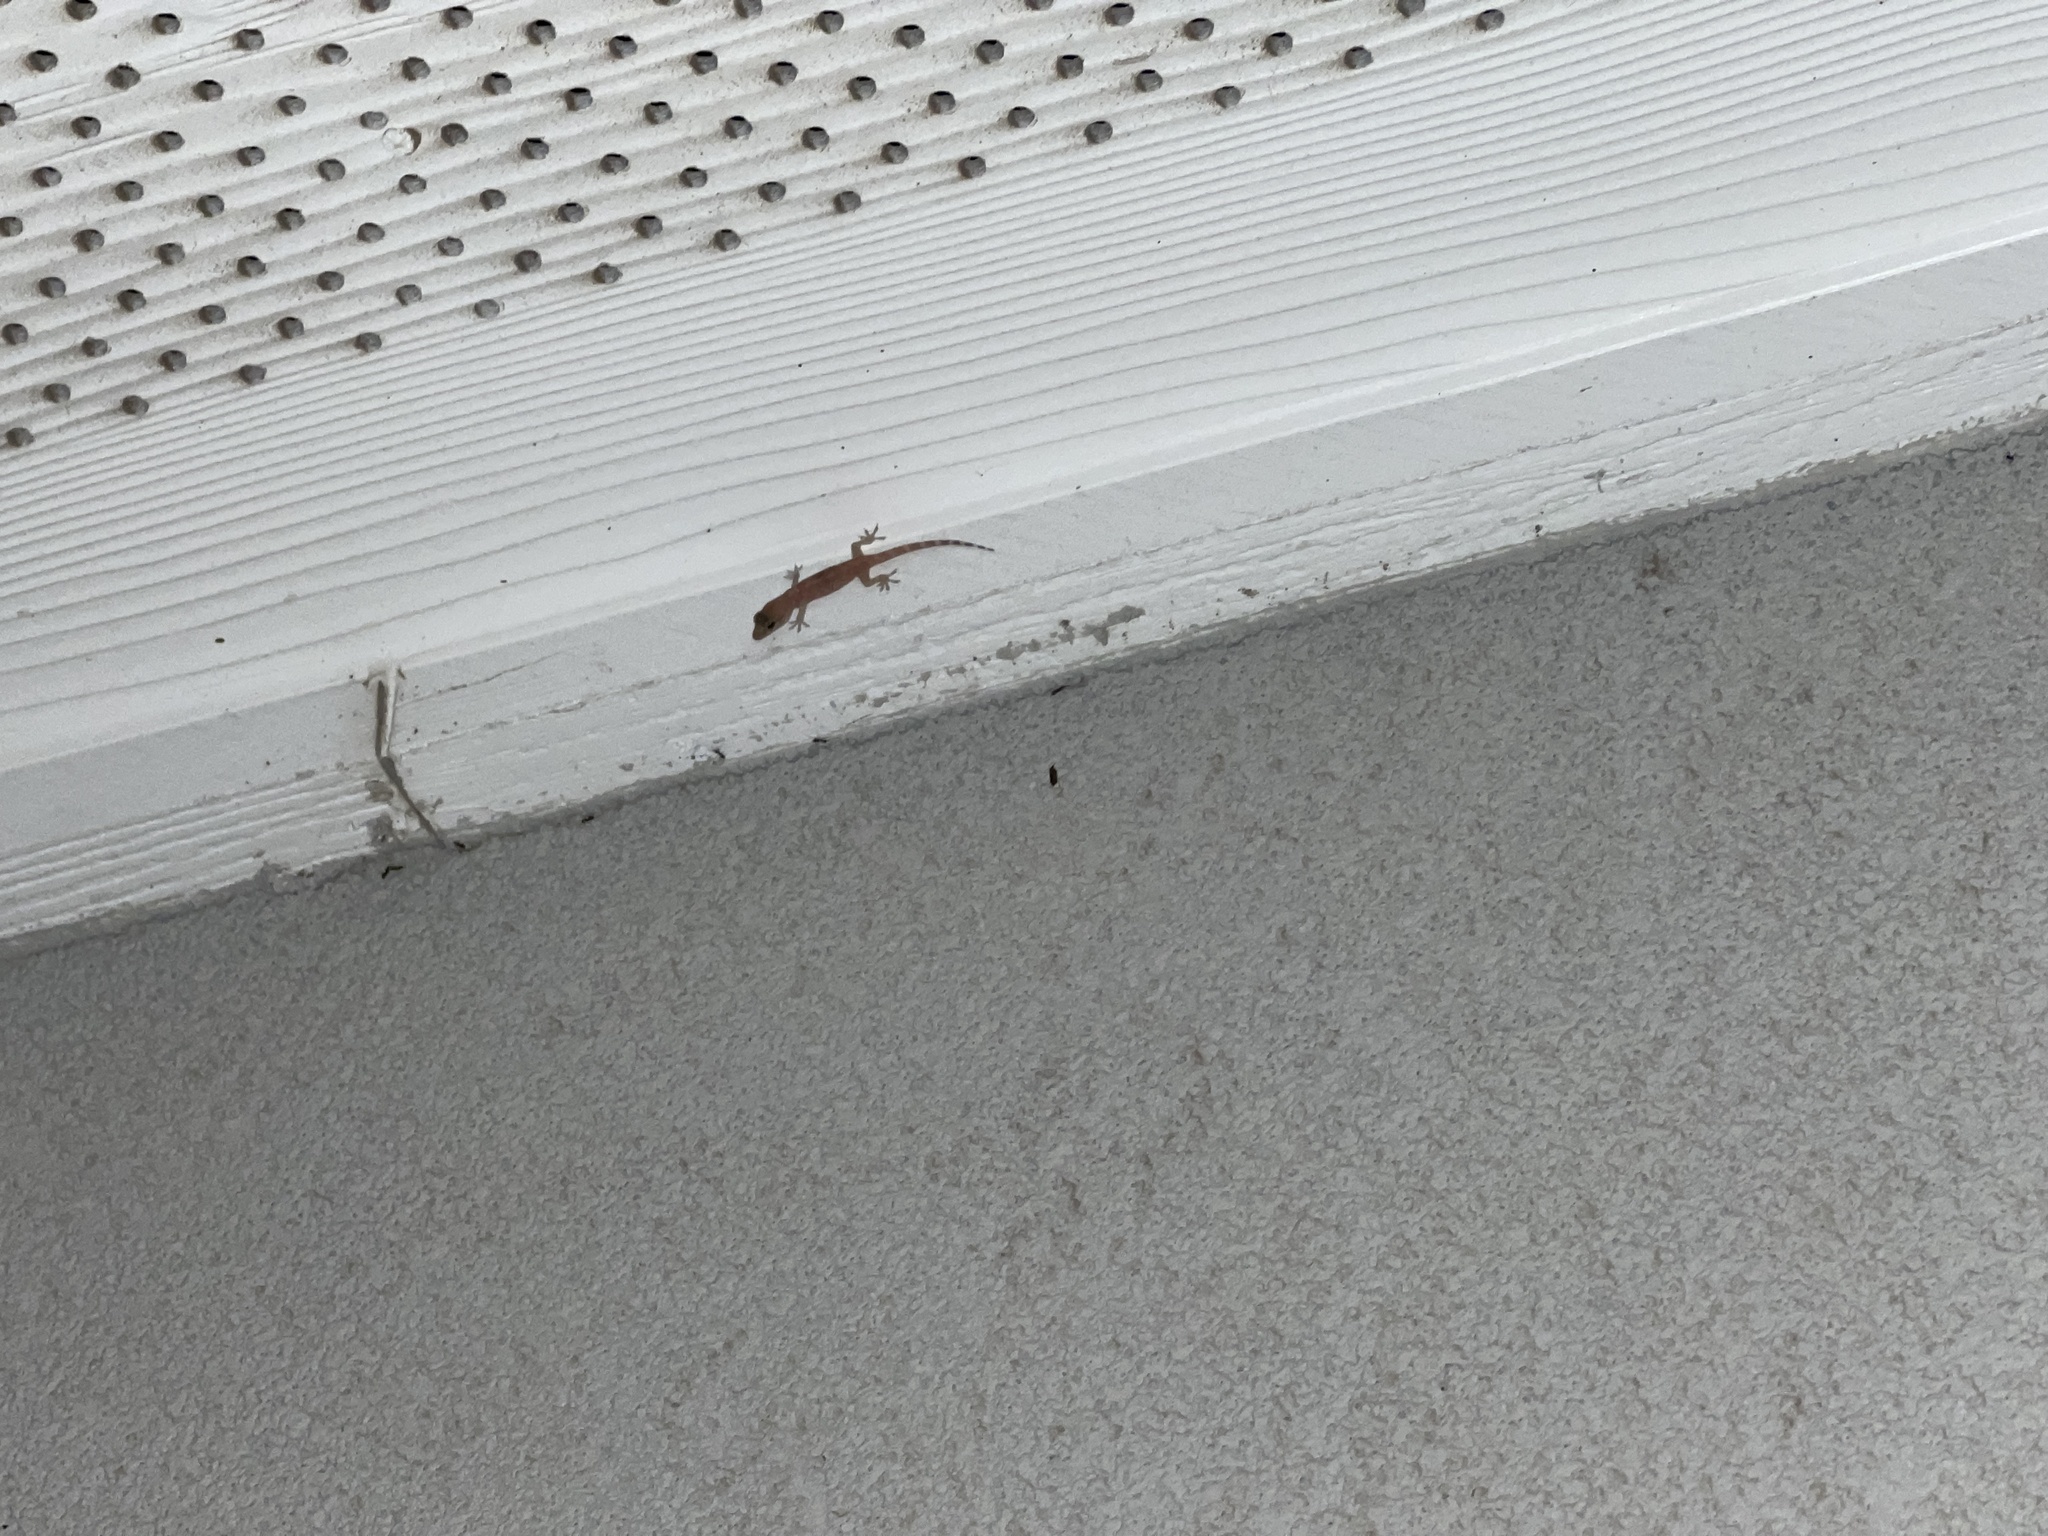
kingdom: Animalia
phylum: Chordata
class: Squamata
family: Gekkonidae
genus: Hemidactylus
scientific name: Hemidactylus turcicus
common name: Turkish gecko
